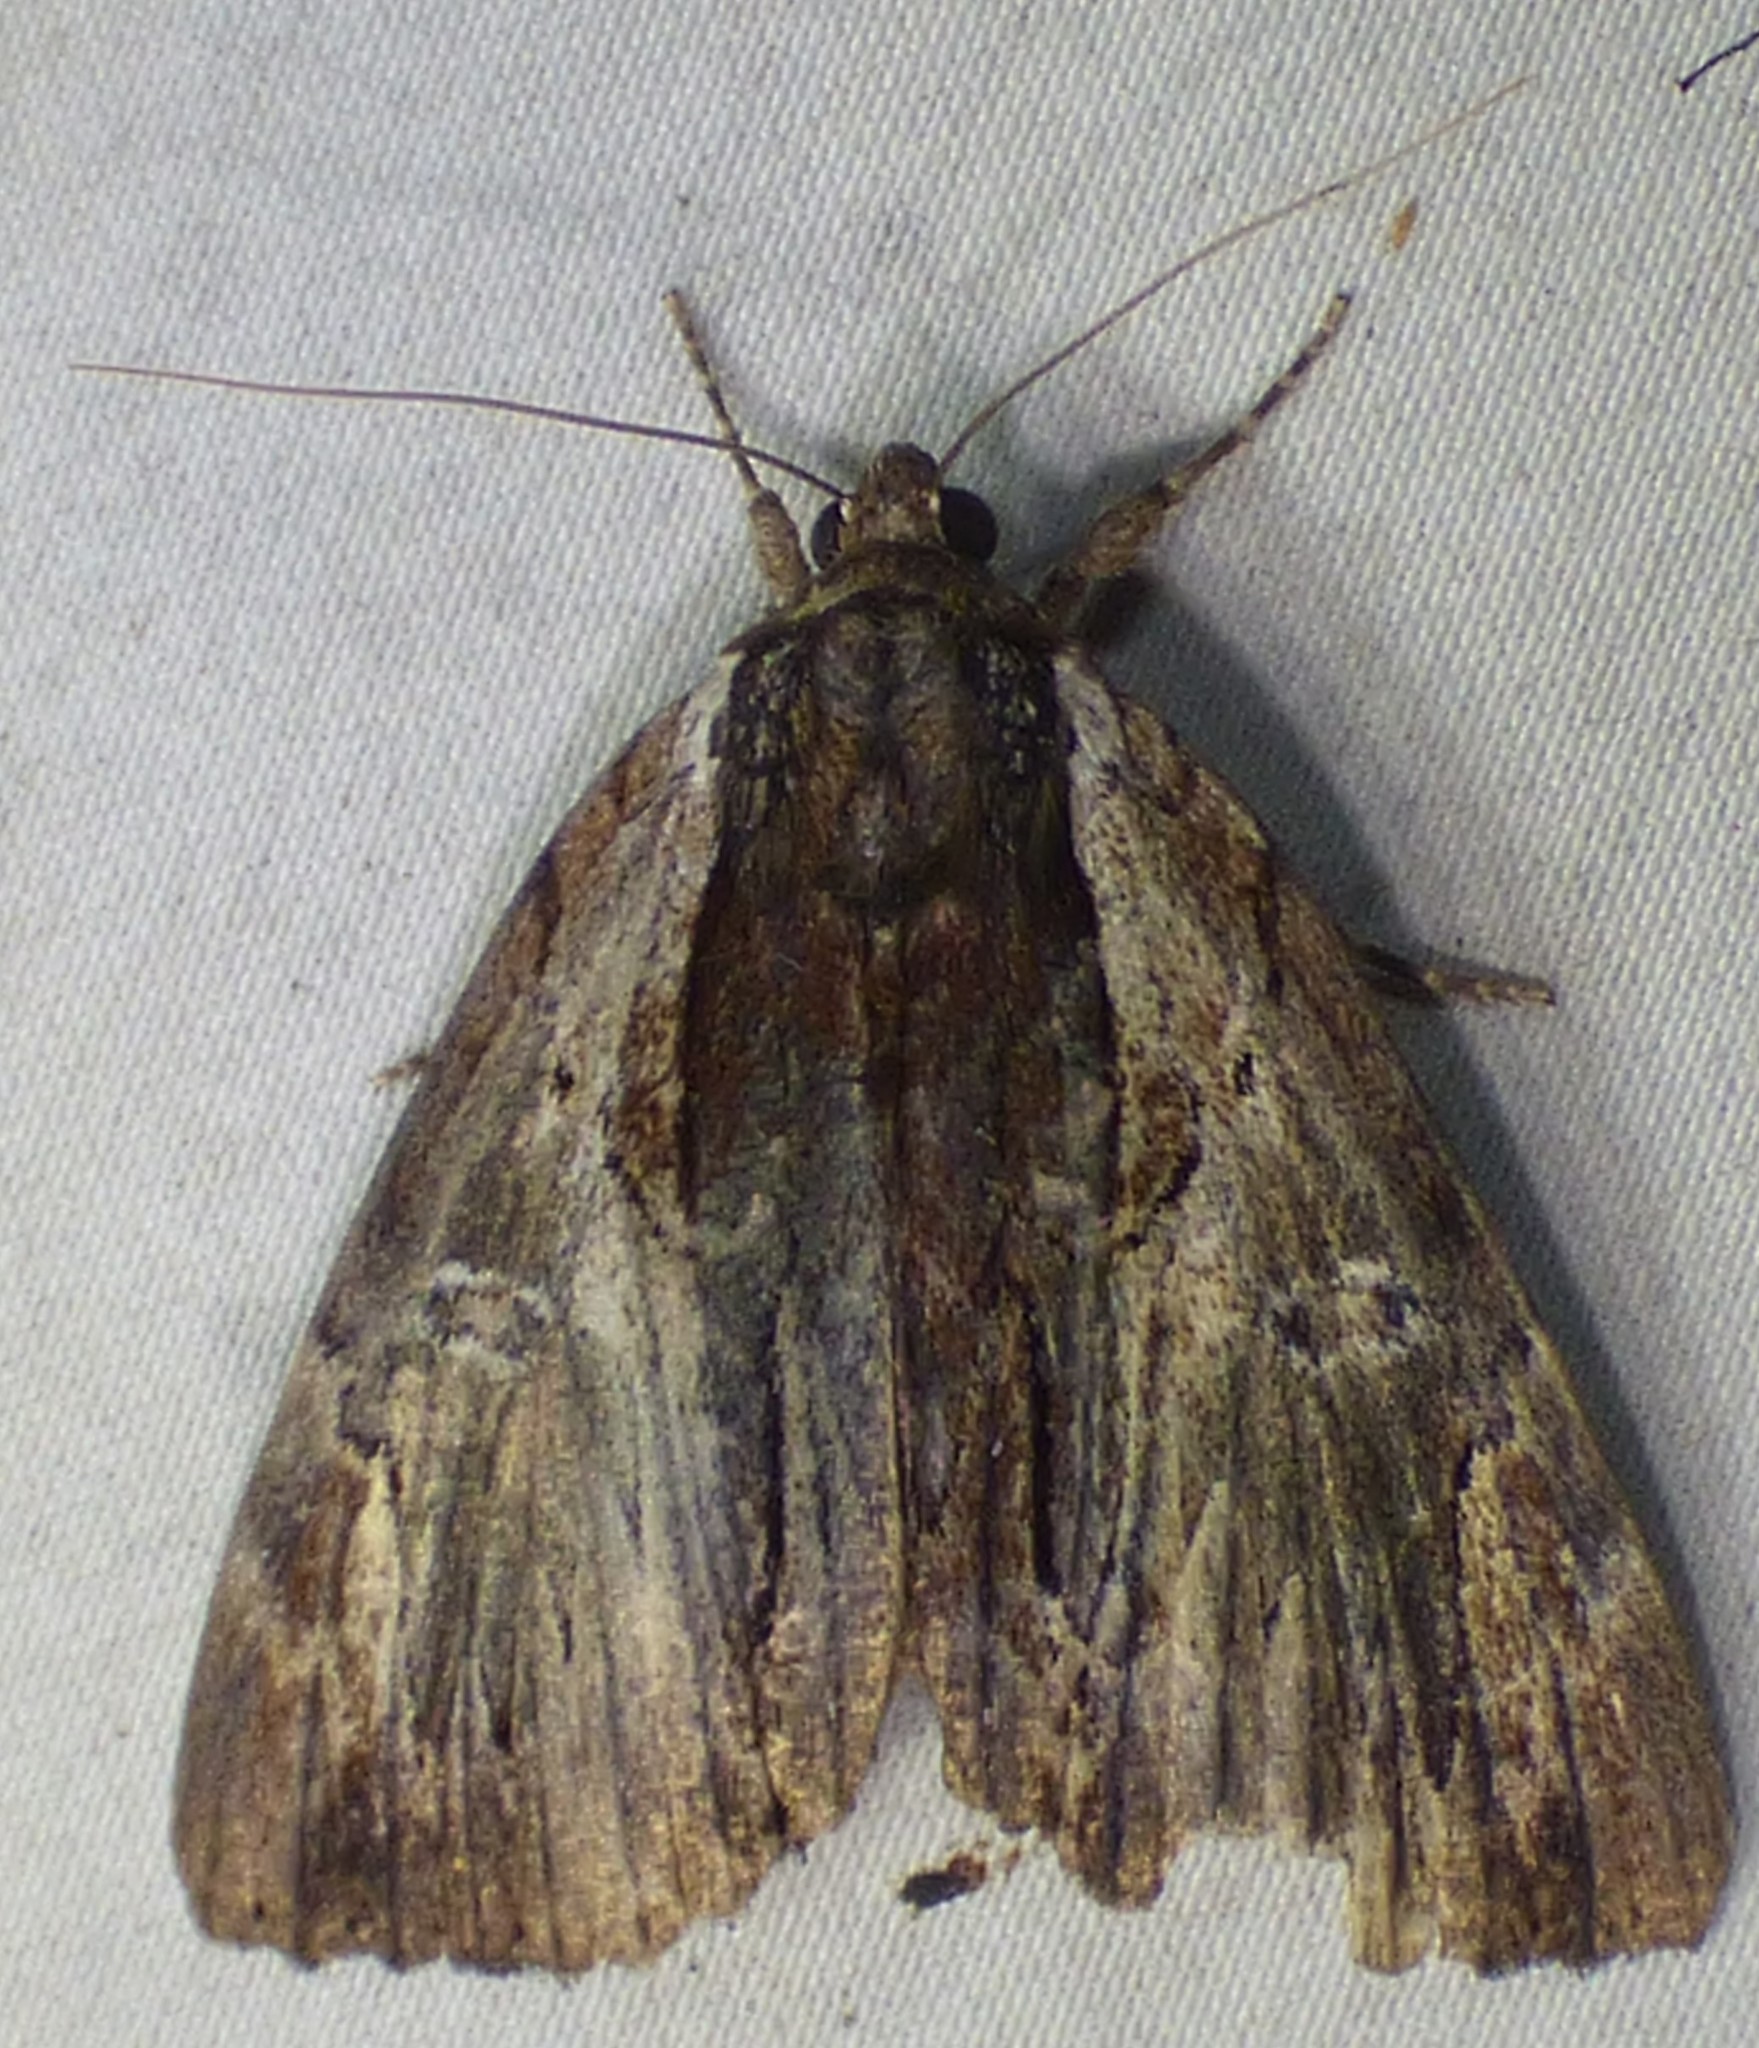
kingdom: Animalia
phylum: Arthropoda
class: Insecta
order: Lepidoptera
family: Erebidae
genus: Catocala
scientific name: Catocala ultronia
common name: Ultronia underwing
